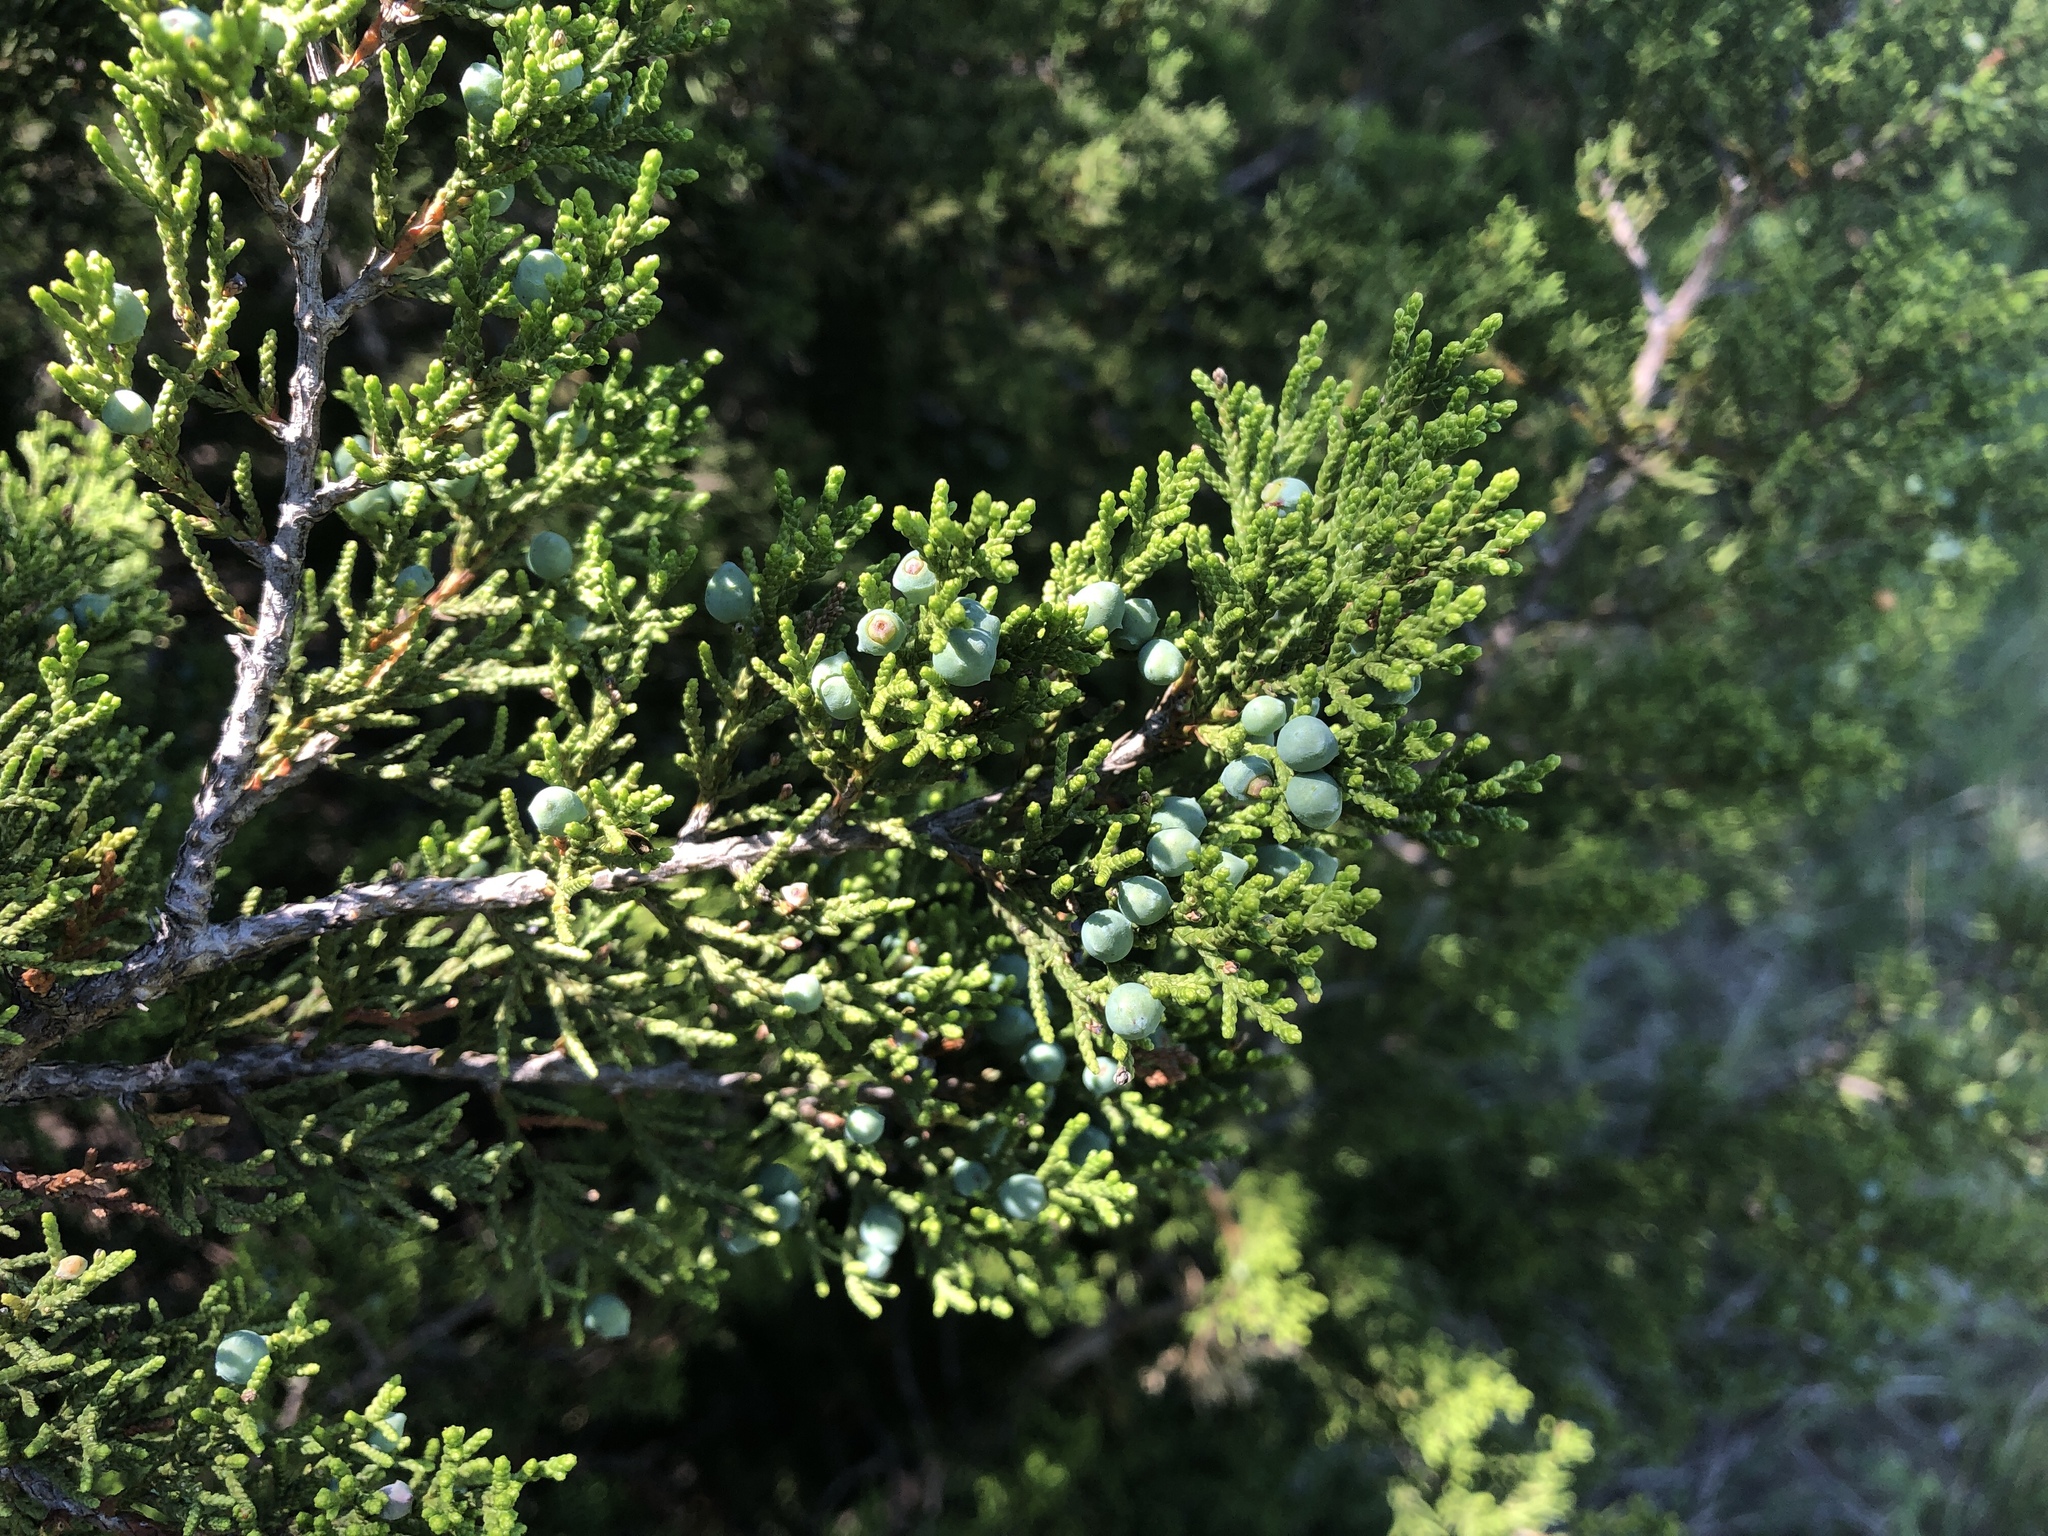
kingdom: Plantae
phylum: Tracheophyta
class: Pinopsida
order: Pinales
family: Cupressaceae
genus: Juniperus
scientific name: Juniperus ashei
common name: Mexican juniper
